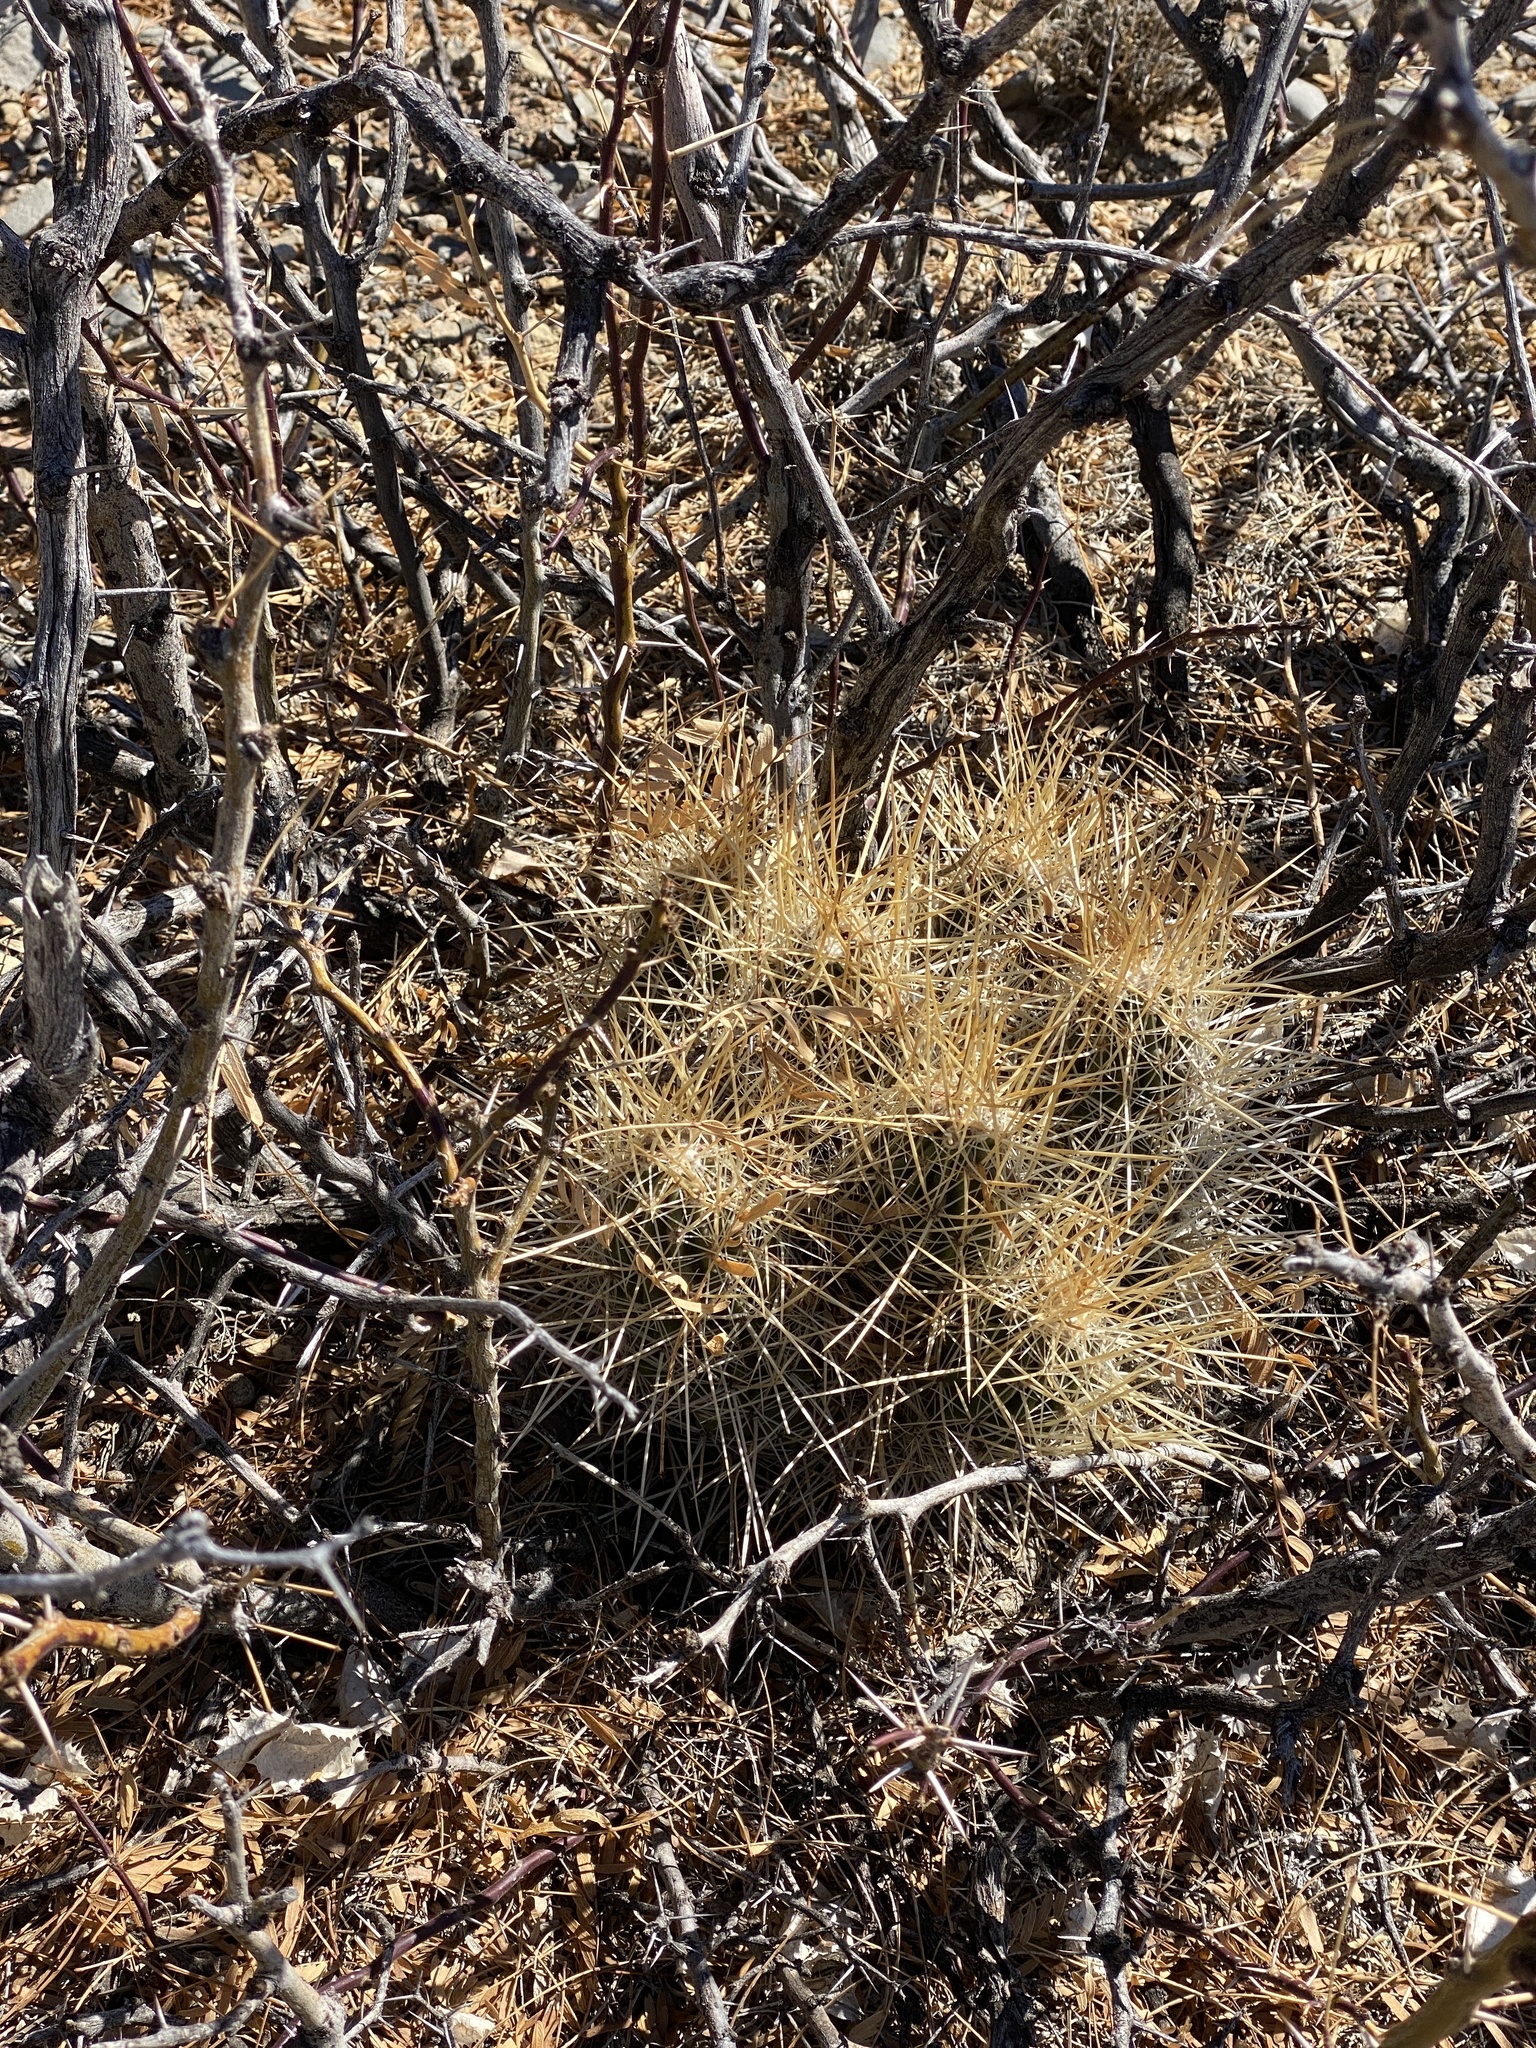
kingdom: Plantae
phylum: Tracheophyta
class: Magnoliopsida
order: Caryophyllales
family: Cactaceae
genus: Echinocereus
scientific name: Echinocereus stramineus
